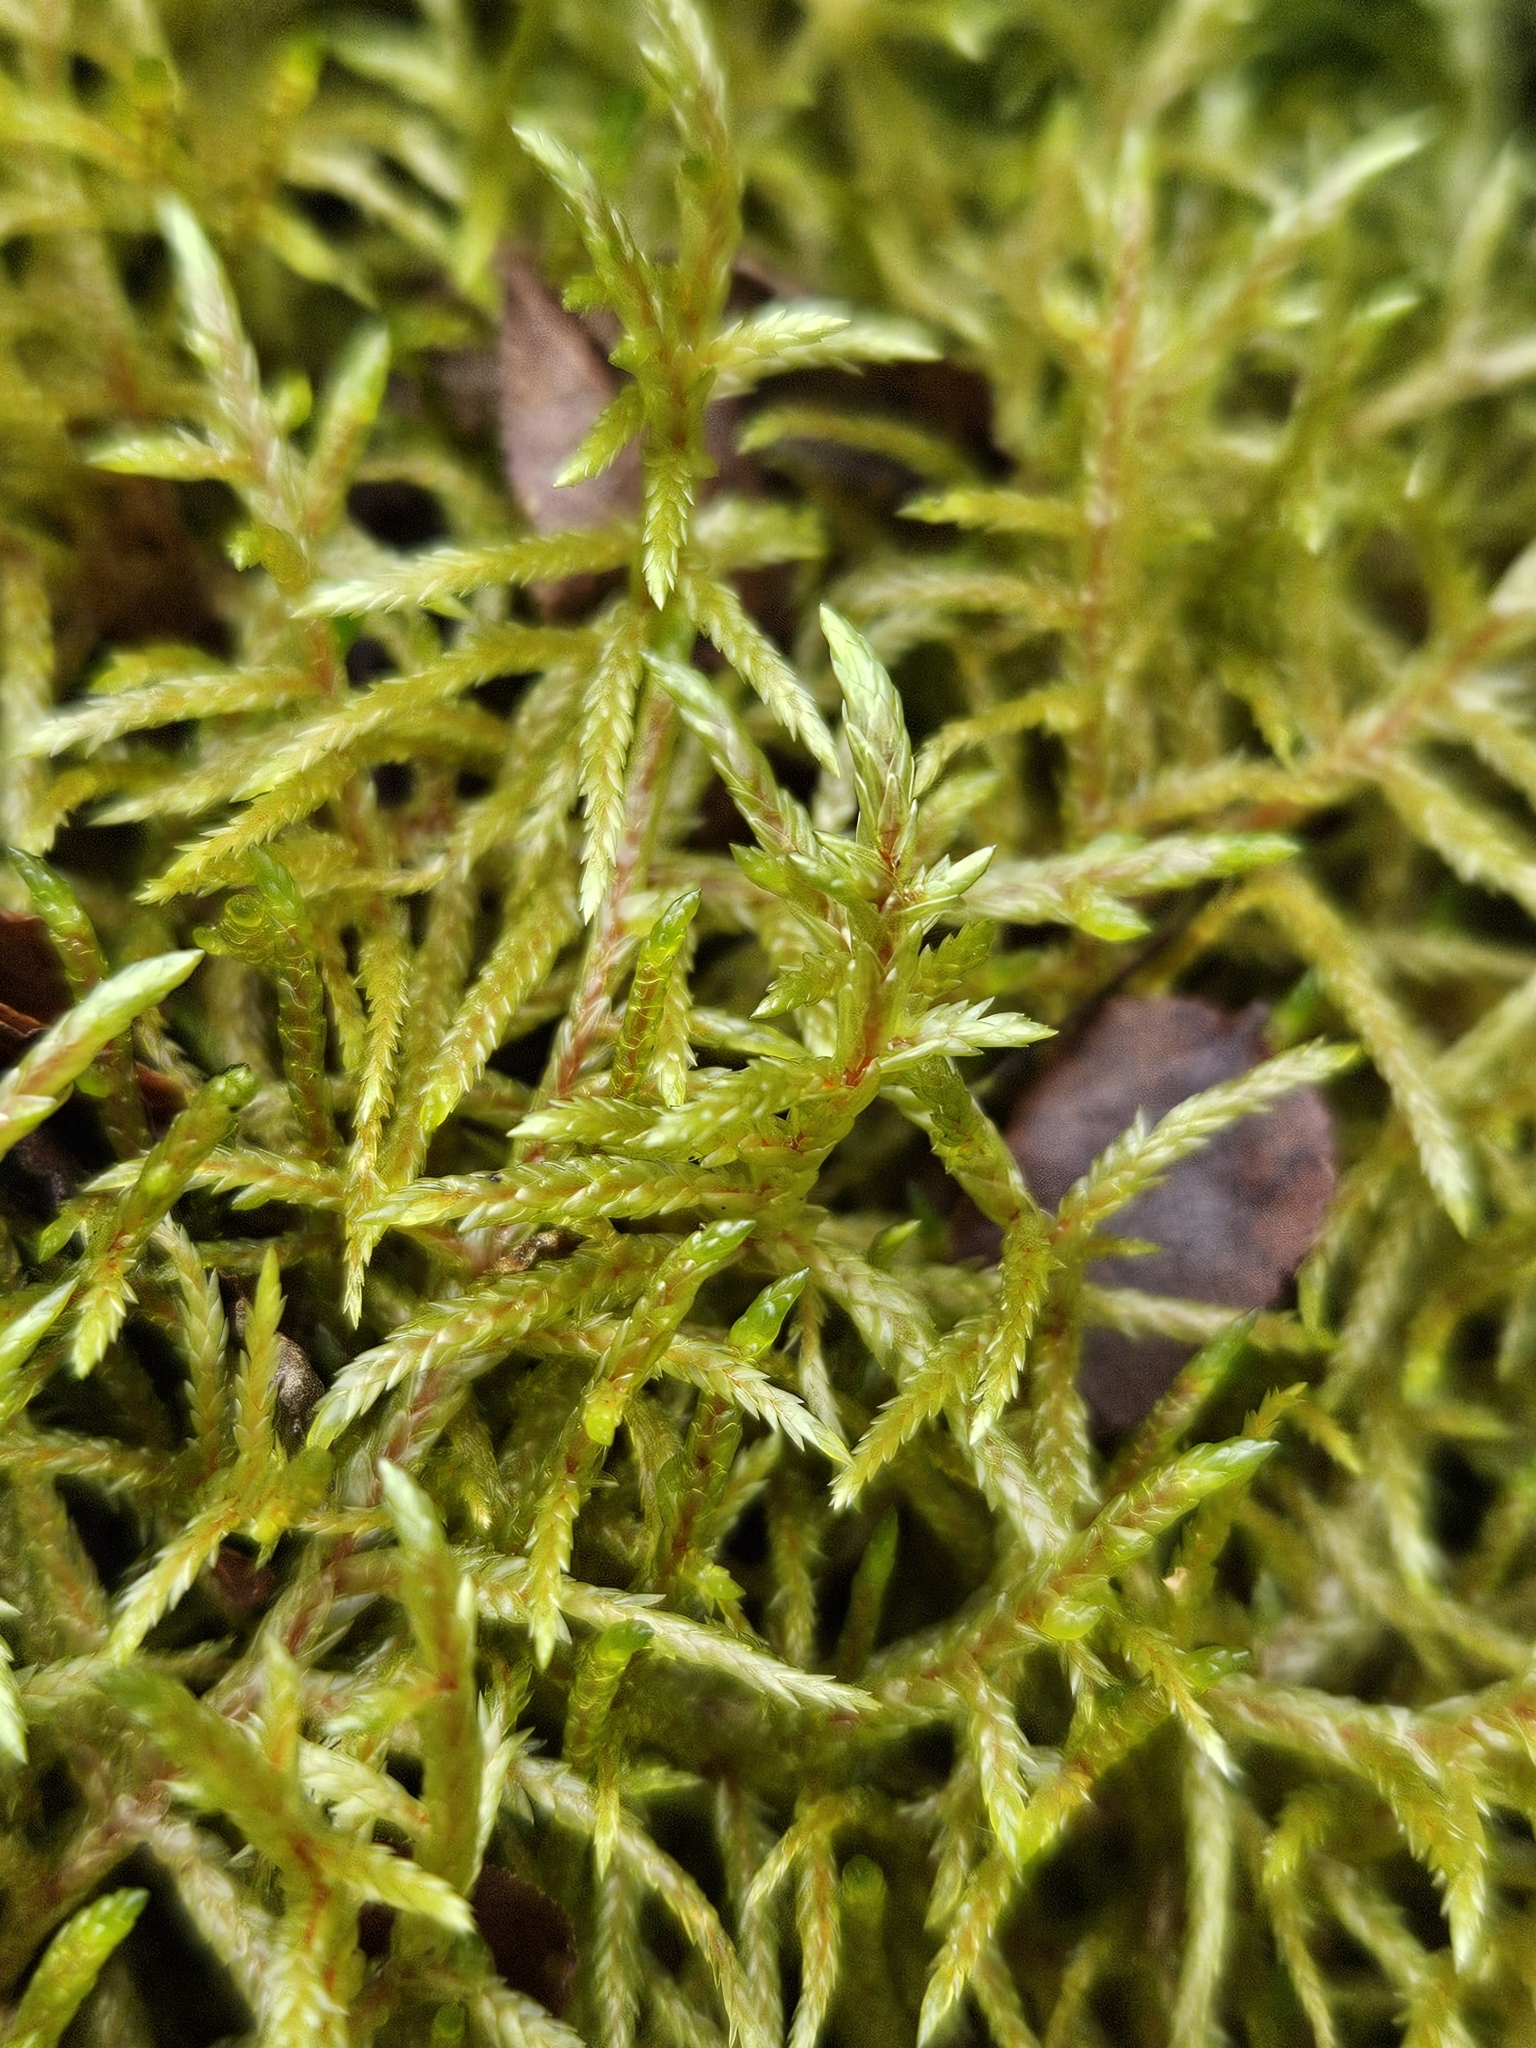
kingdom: Plantae
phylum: Bryophyta
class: Bryopsida
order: Hypnales
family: Hylocomiaceae
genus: Pleurozium
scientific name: Pleurozium schreberi
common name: Red-stemmed feather moss
